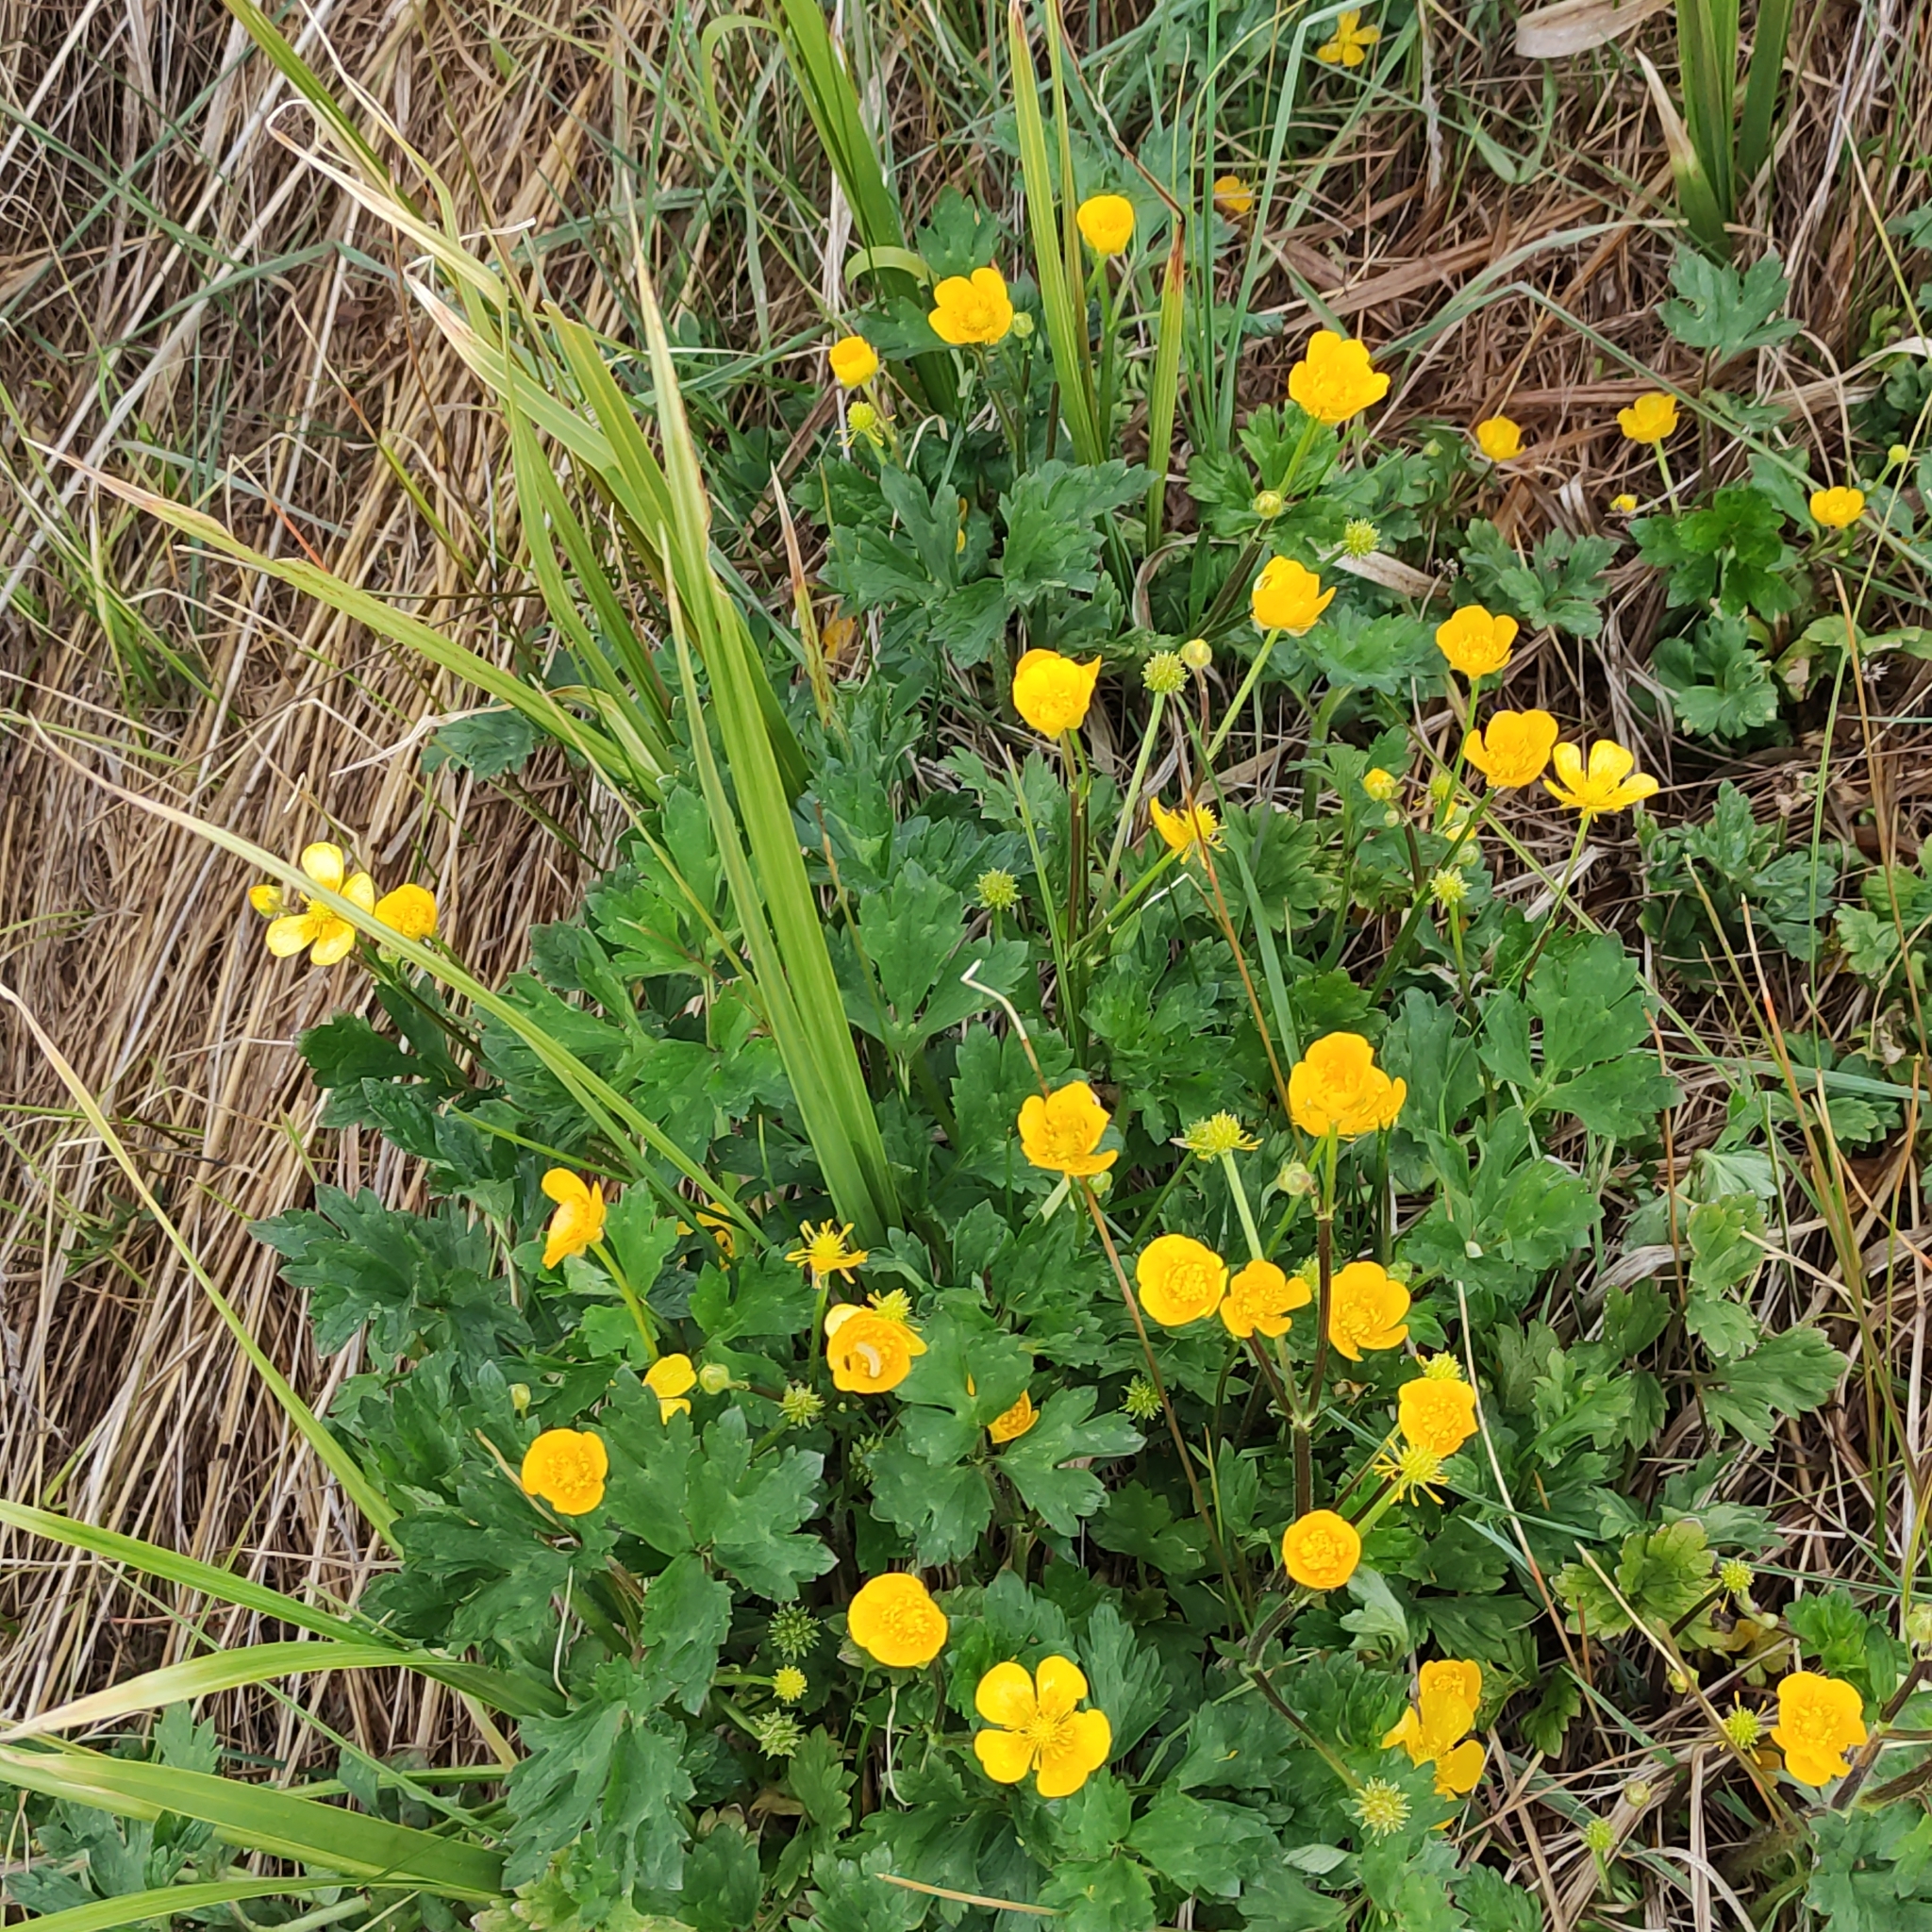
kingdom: Plantae
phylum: Tracheophyta
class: Magnoliopsida
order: Ranunculales
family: Ranunculaceae
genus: Ranunculus
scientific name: Ranunculus repens
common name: Creeping buttercup
